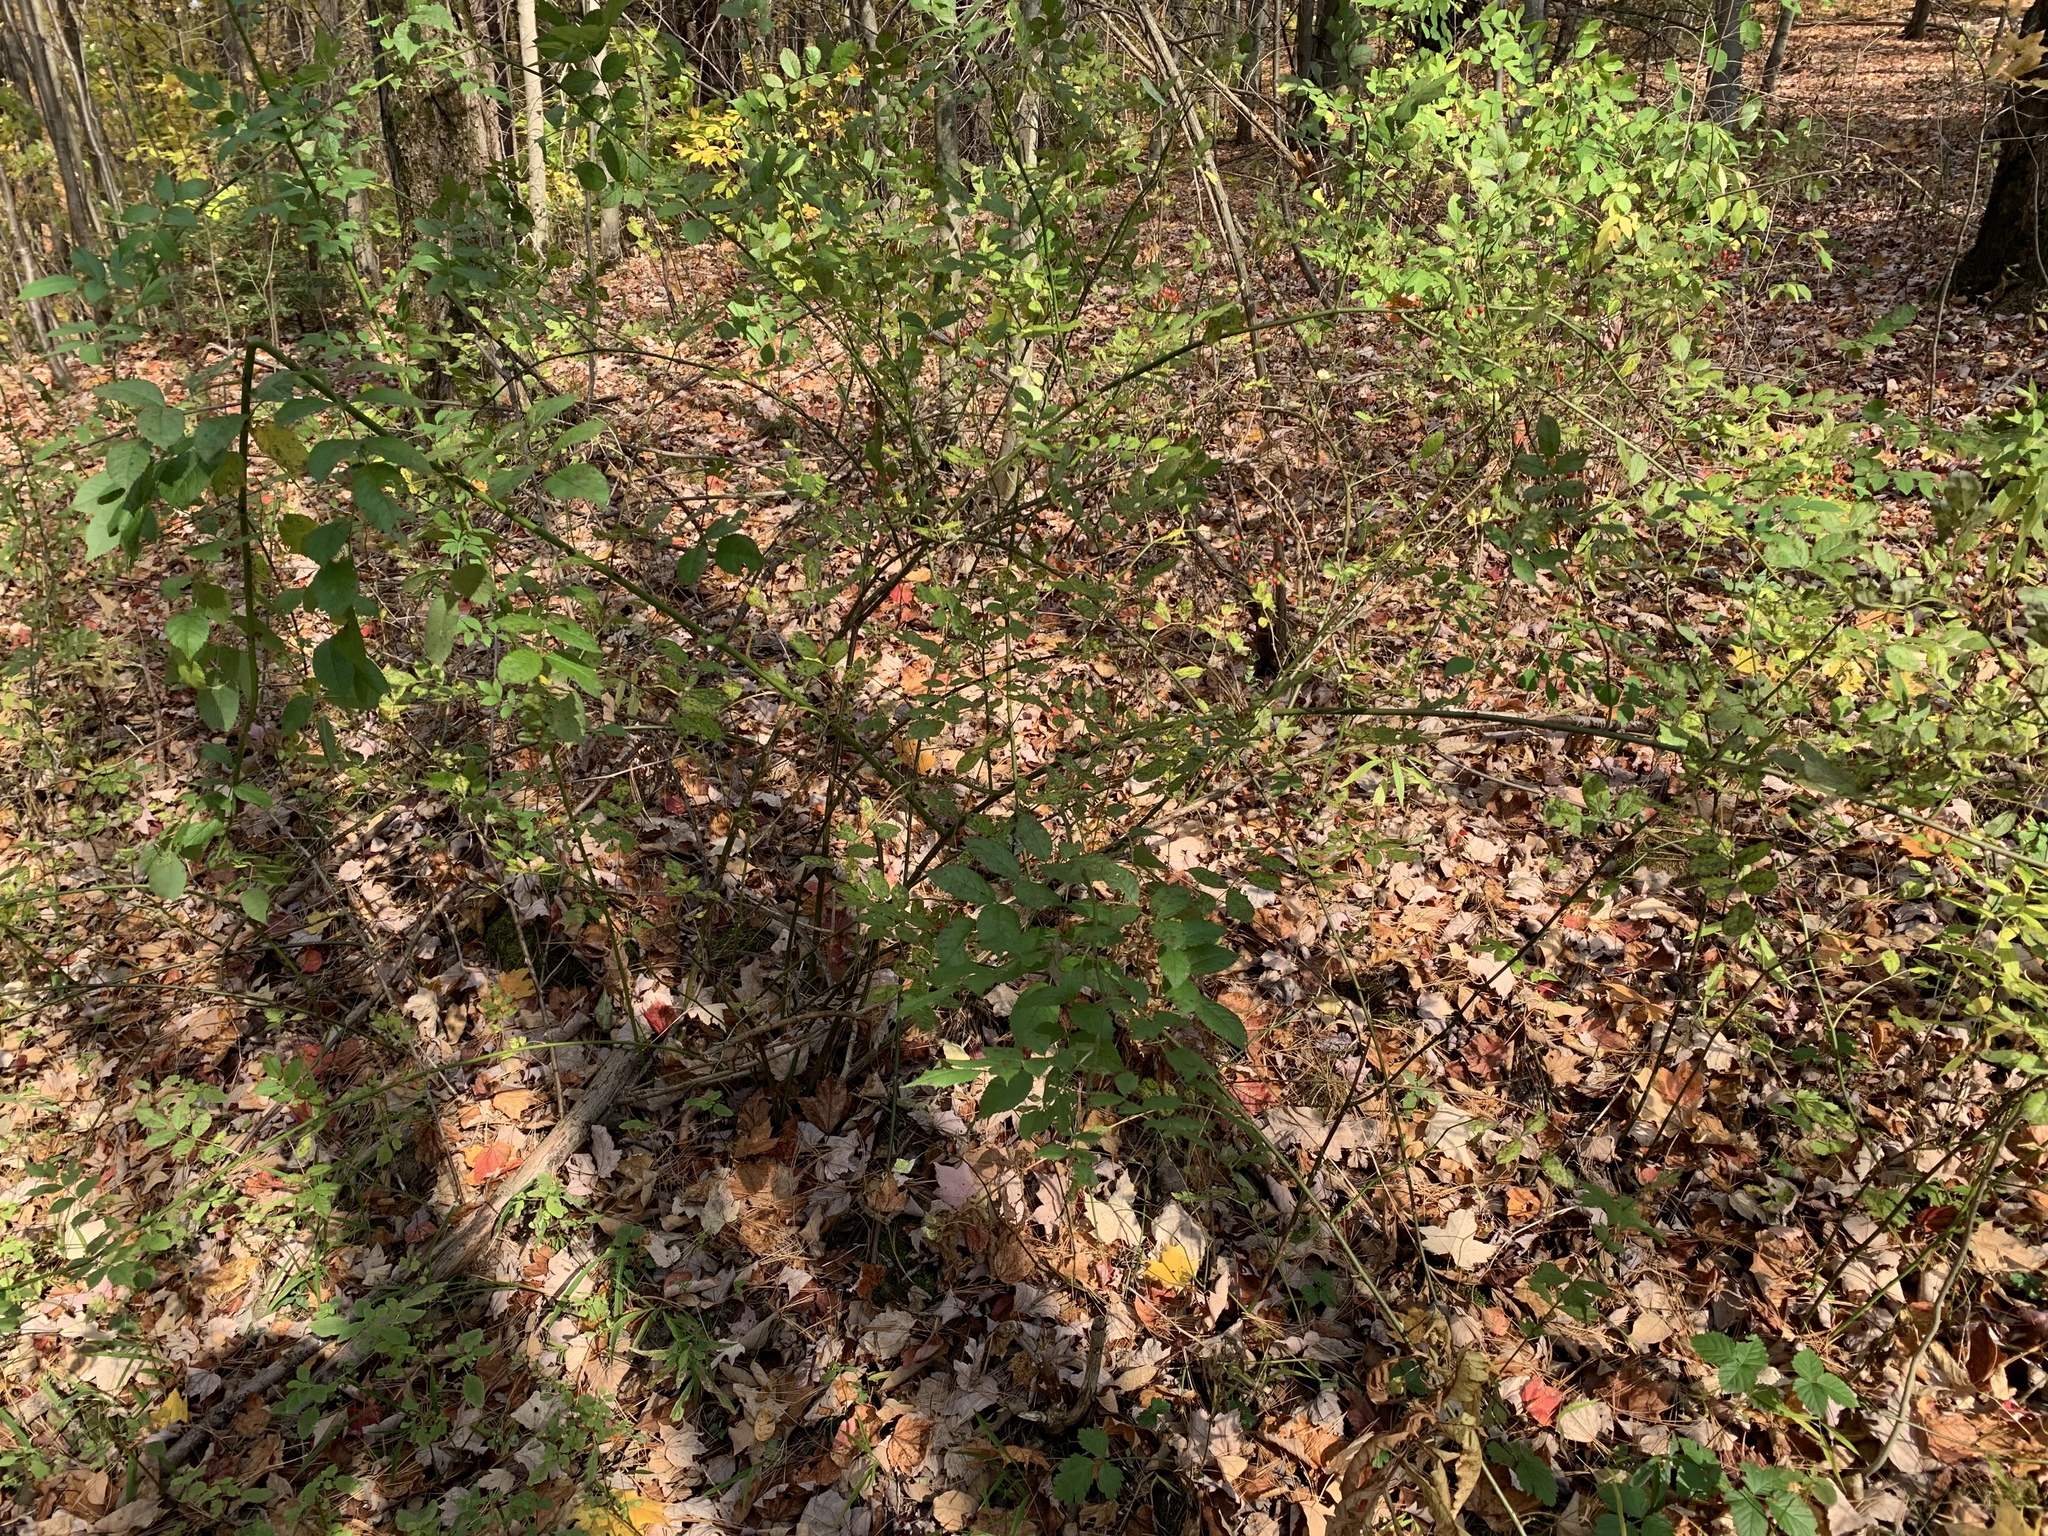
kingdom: Plantae
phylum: Tracheophyta
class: Magnoliopsida
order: Rosales
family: Rosaceae
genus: Rosa
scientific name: Rosa multiflora
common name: Multiflora rose
